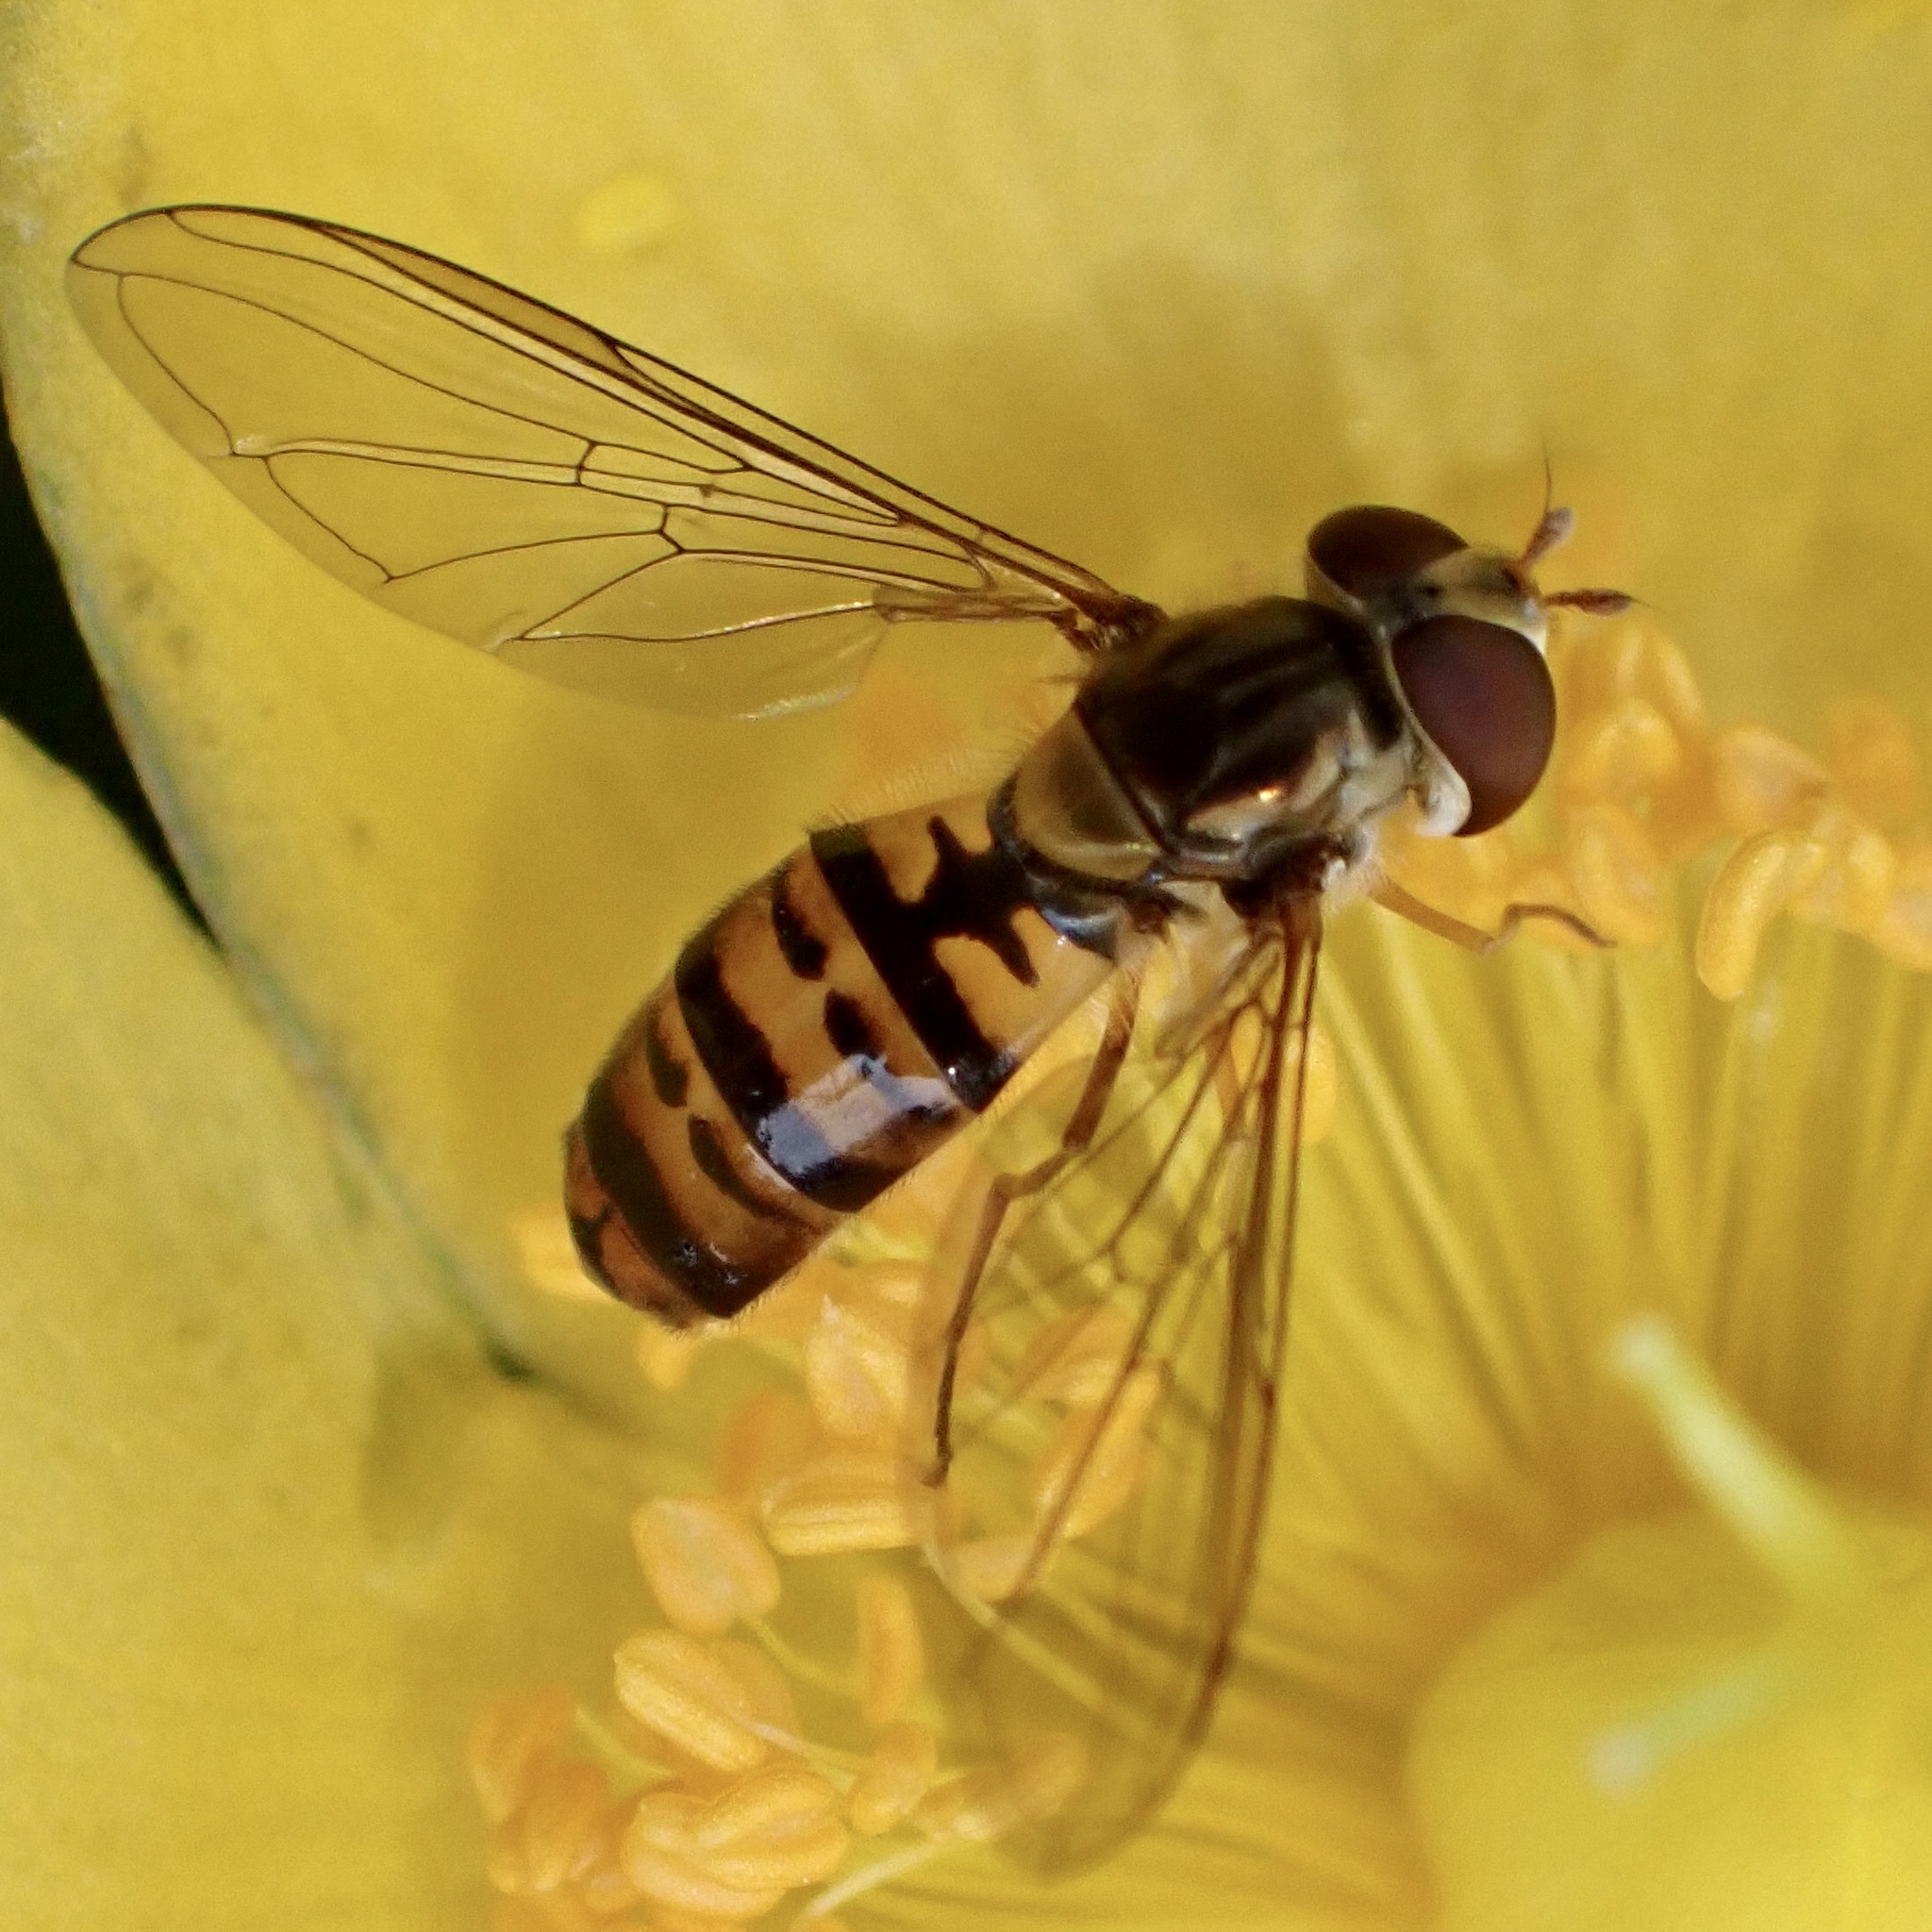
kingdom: Animalia
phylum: Arthropoda
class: Insecta
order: Diptera
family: Syrphidae
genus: Episyrphus
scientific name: Episyrphus balteatus
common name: Marmalade hoverfly
